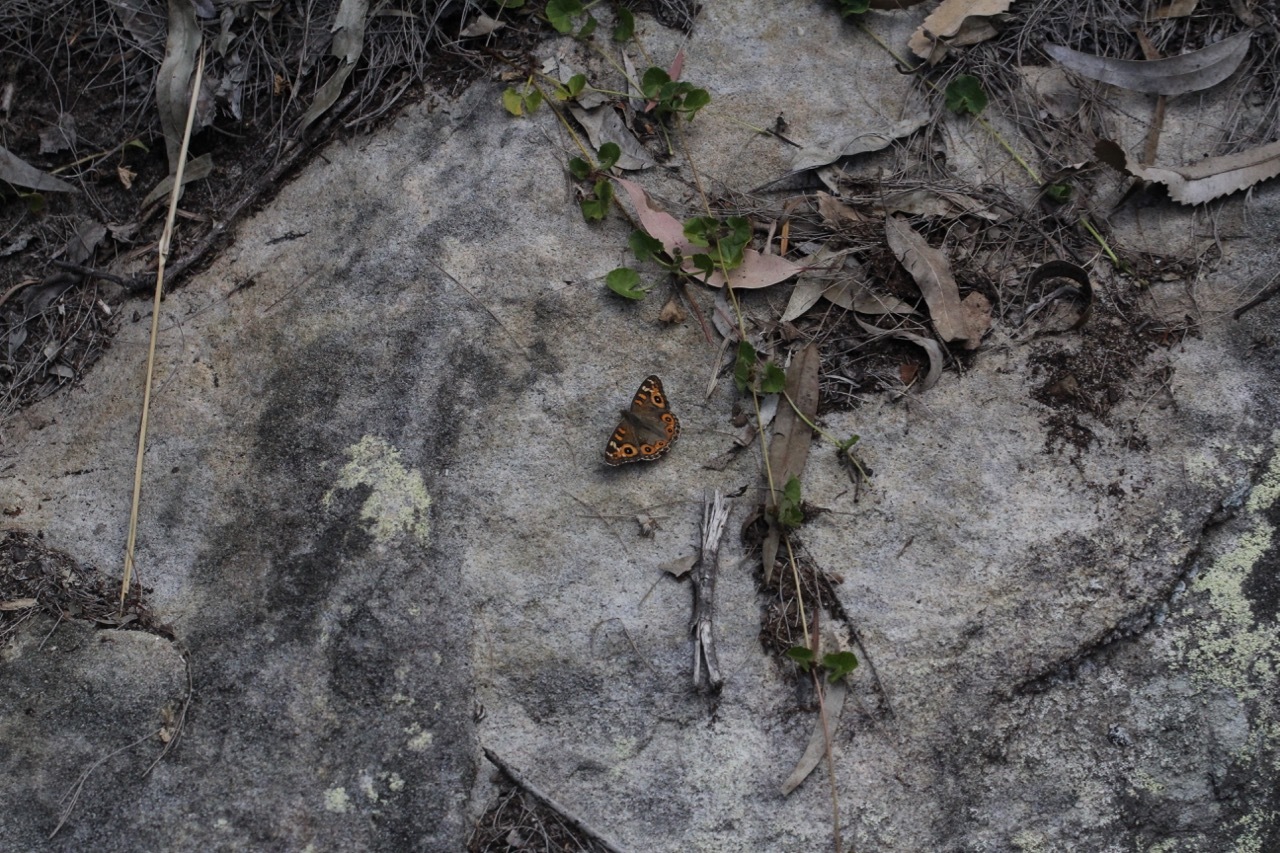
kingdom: Animalia
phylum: Arthropoda
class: Insecta
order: Lepidoptera
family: Nymphalidae
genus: Junonia
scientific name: Junonia villida
